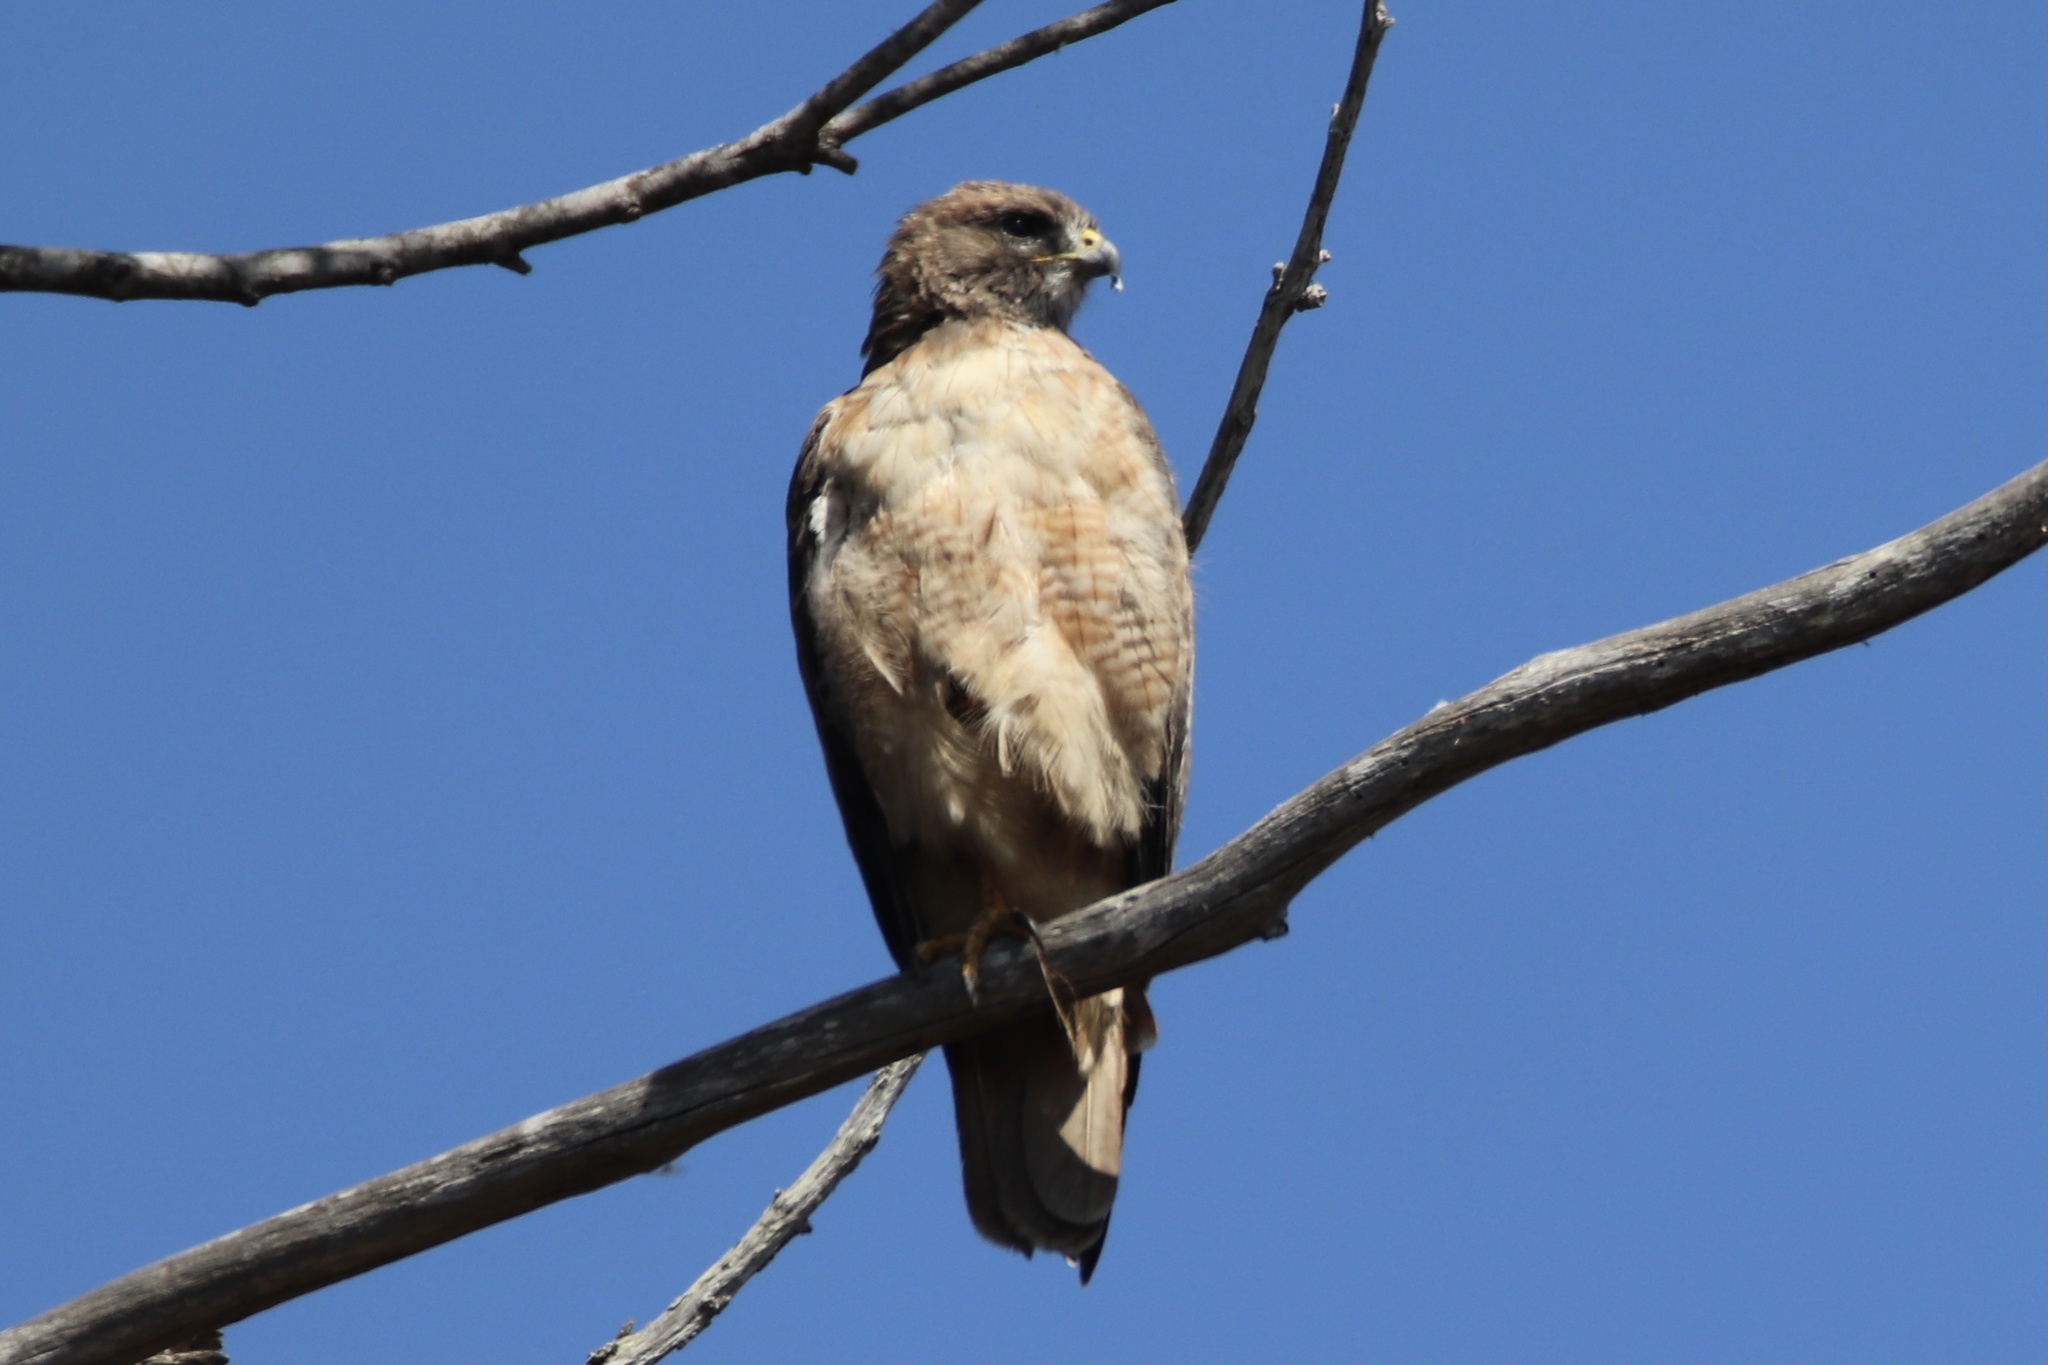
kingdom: Animalia
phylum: Chordata
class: Aves
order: Accipitriformes
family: Accipitridae
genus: Buteo
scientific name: Buteo jamaicensis
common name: Red-tailed hawk
